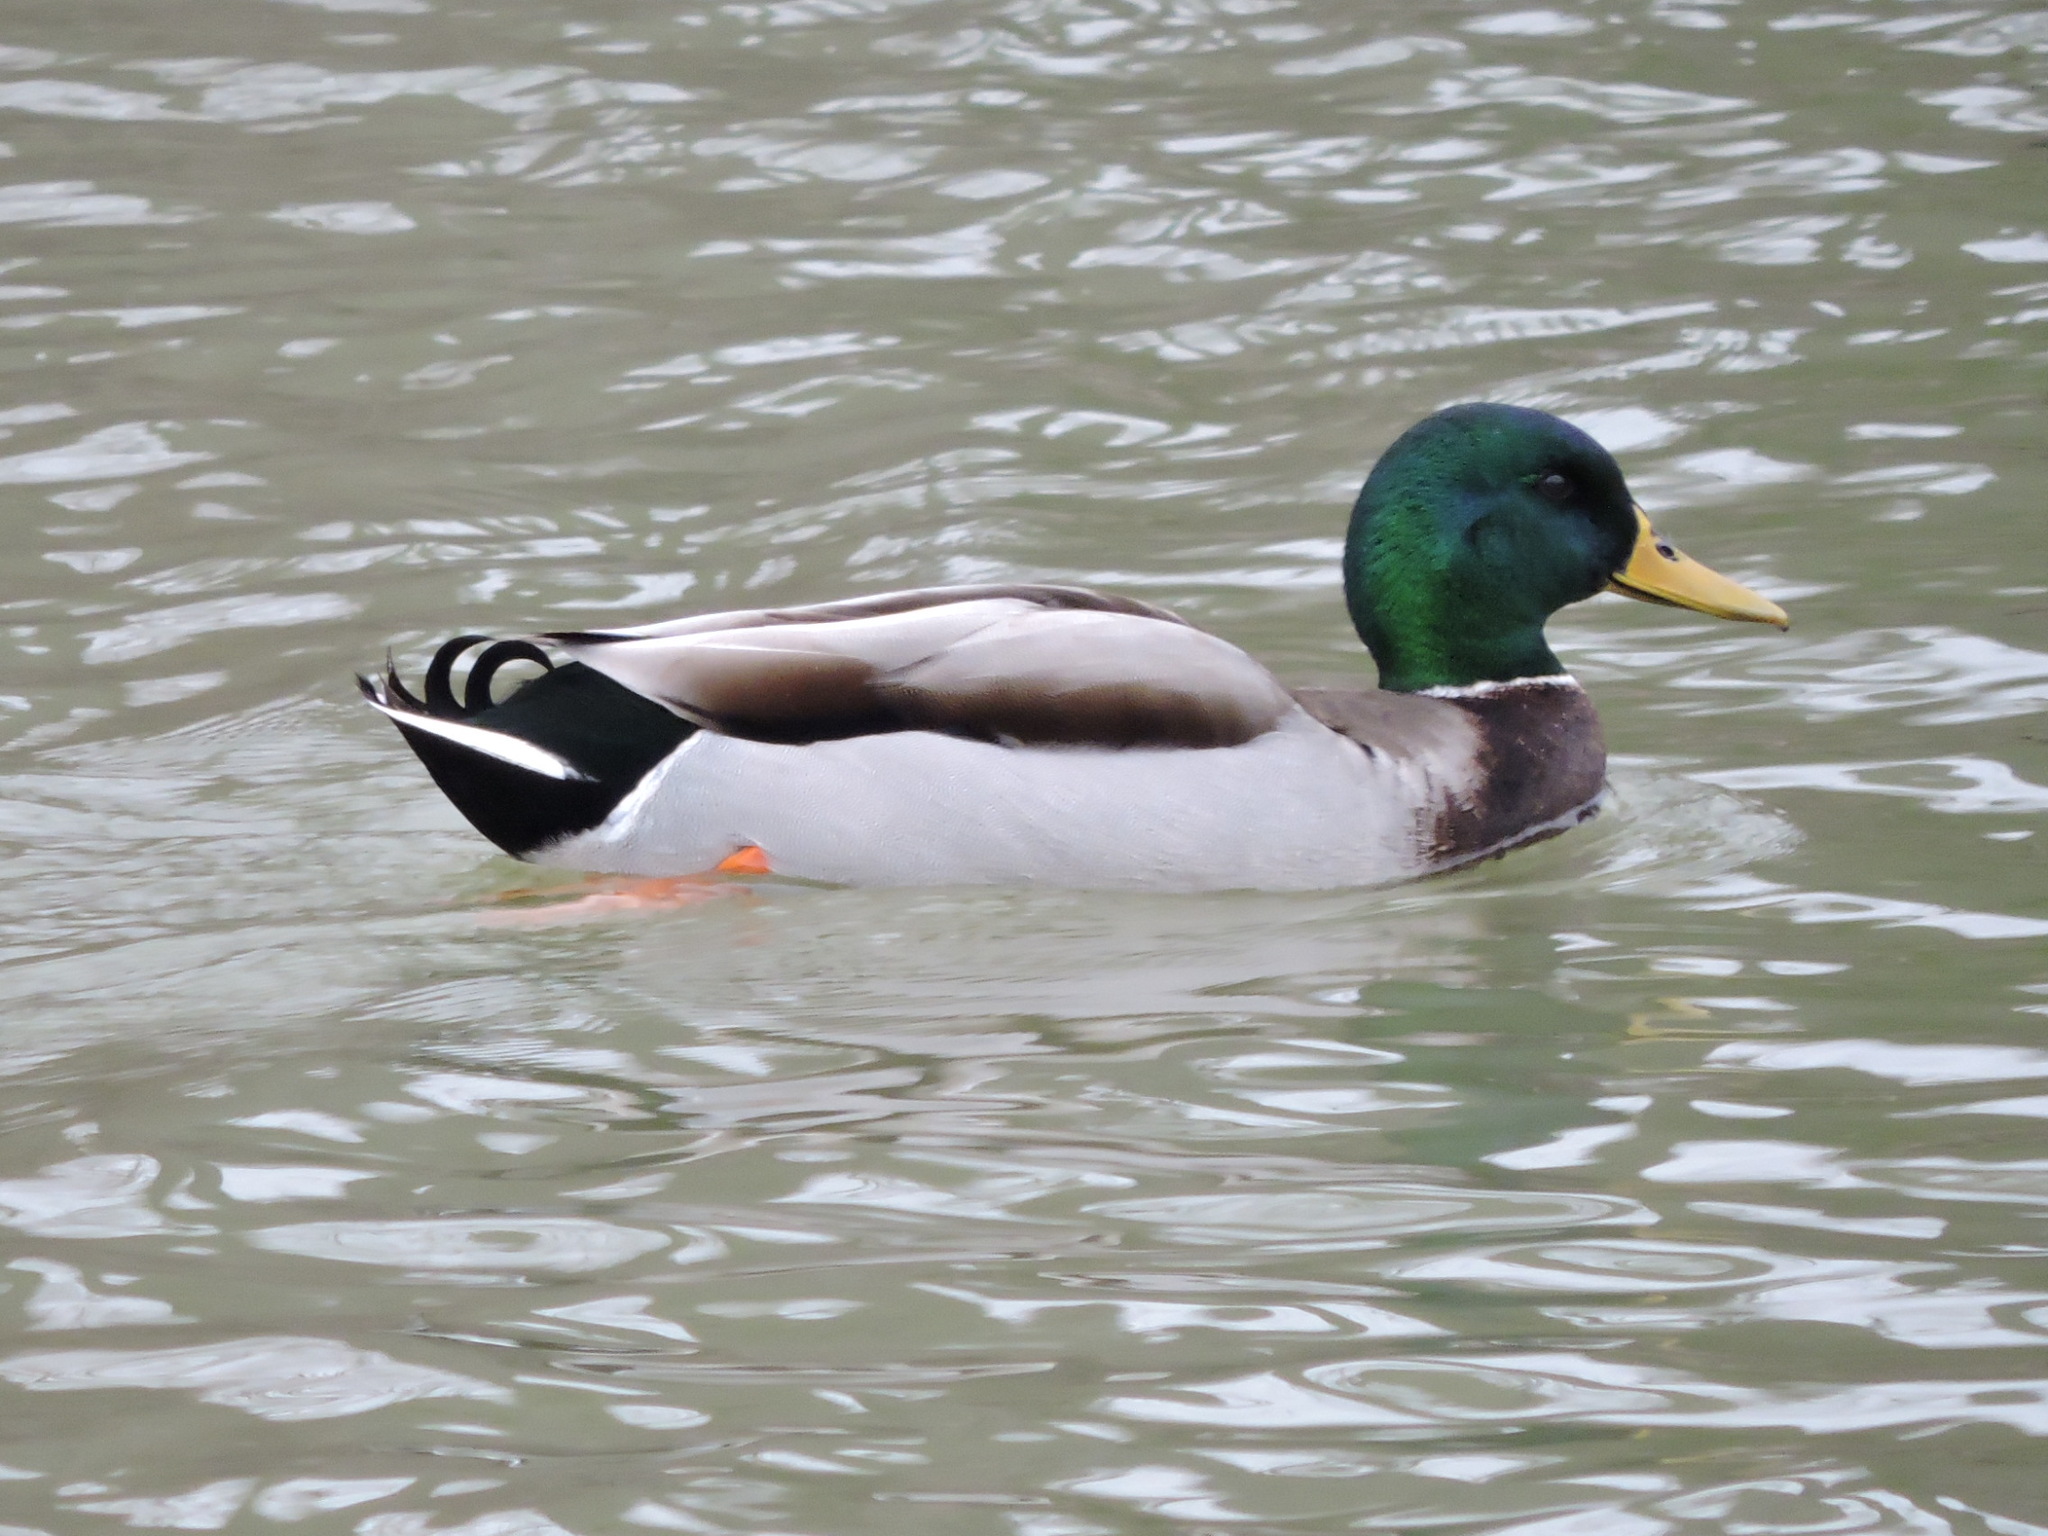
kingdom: Animalia
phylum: Chordata
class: Aves
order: Anseriformes
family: Anatidae
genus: Anas
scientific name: Anas platyrhynchos
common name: Mallard
